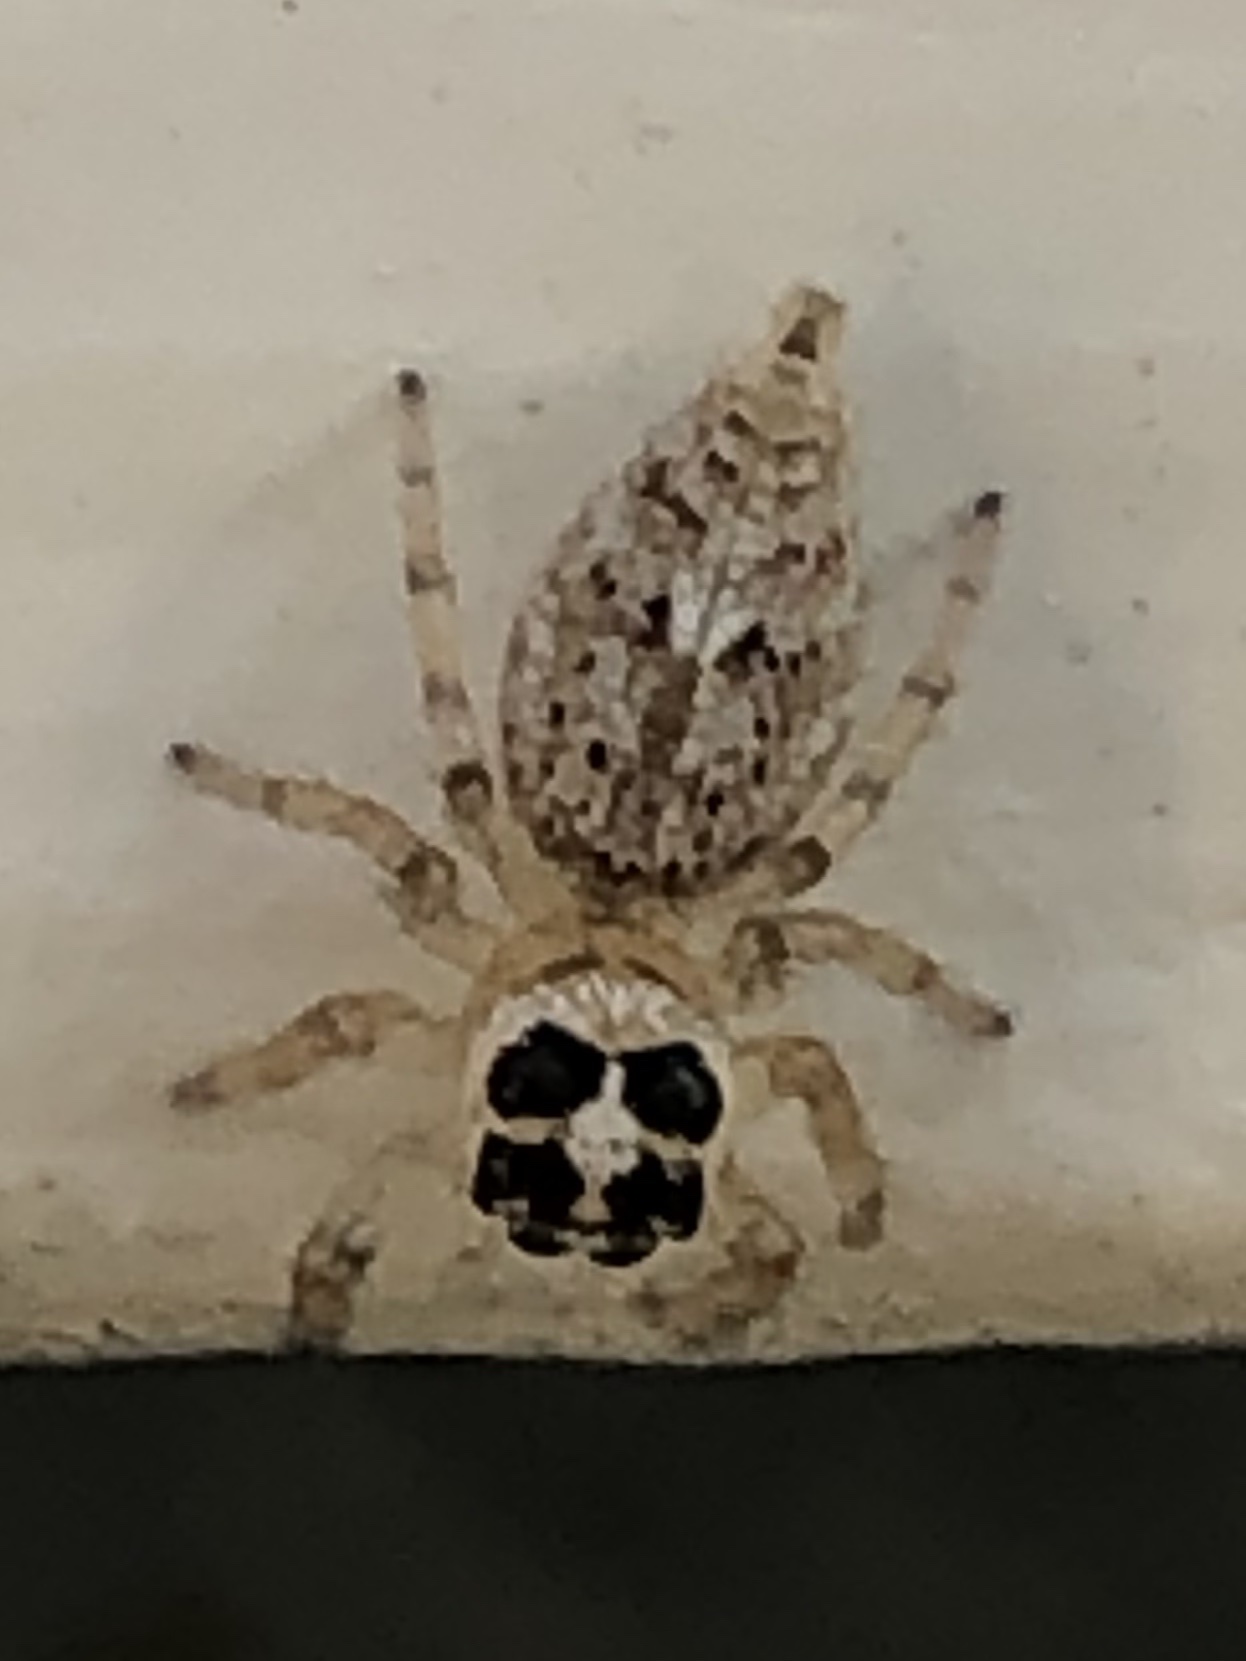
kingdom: Animalia
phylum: Arthropoda
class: Arachnida
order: Araneae
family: Salticidae
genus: Colonus
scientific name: Colonus hesperus
